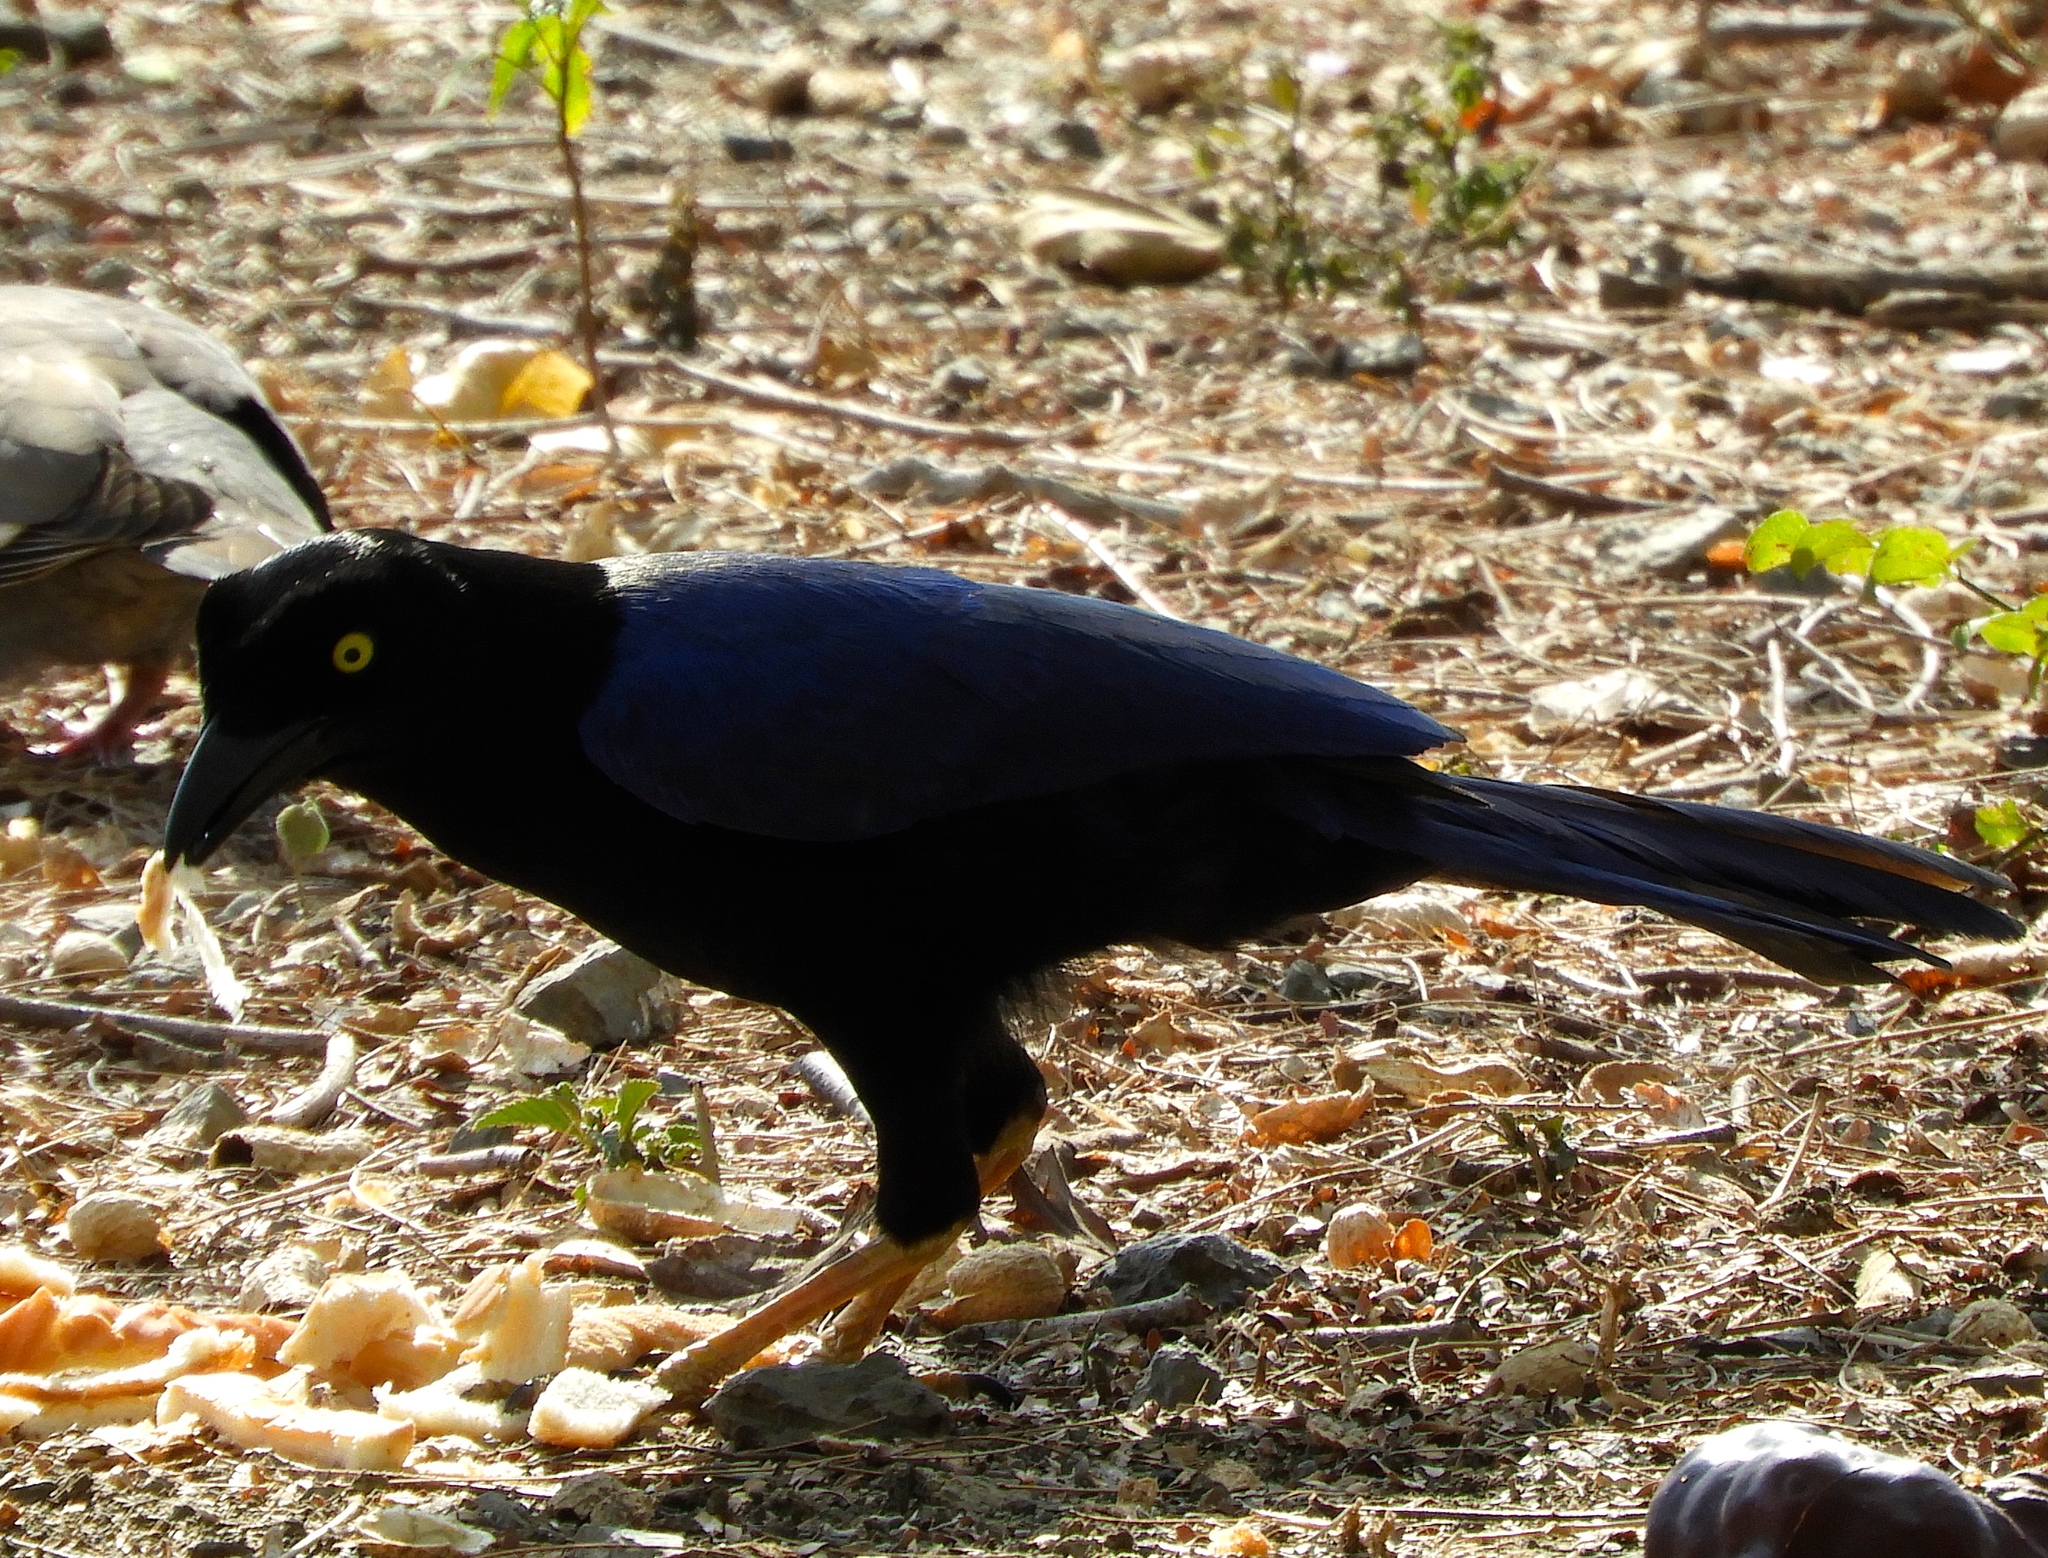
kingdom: Animalia
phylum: Chordata
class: Aves
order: Passeriformes
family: Corvidae
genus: Cyanocorax
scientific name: Cyanocorax beecheii
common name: Purplish-backed jay
